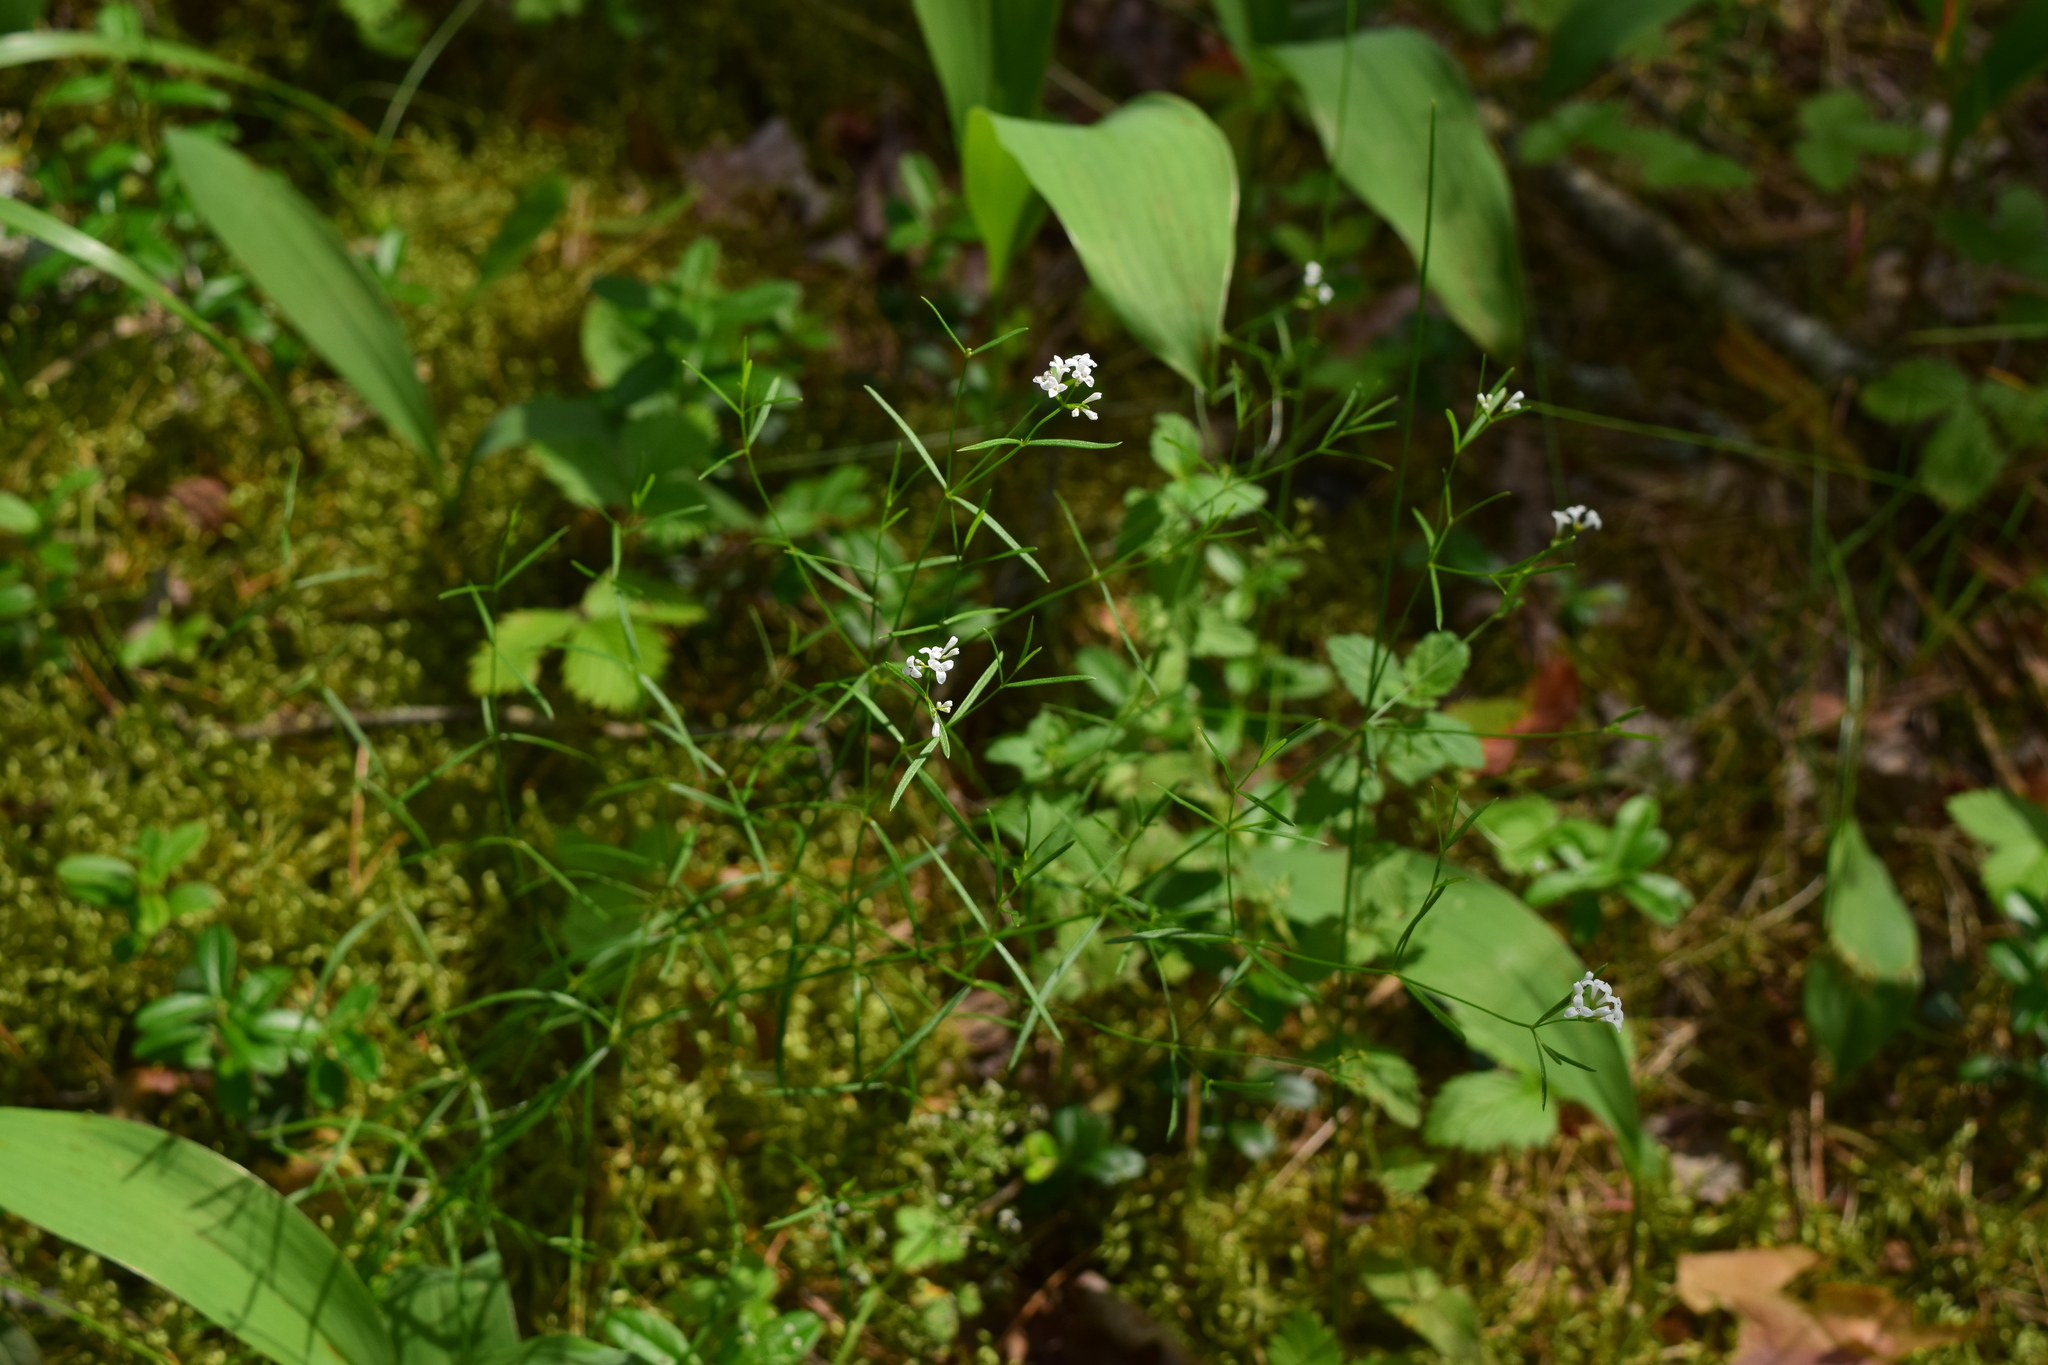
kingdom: Plantae
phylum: Tracheophyta
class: Magnoliopsida
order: Gentianales
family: Rubiaceae
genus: Asperula
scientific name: Asperula tinctoria
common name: Dyer's woodruff
